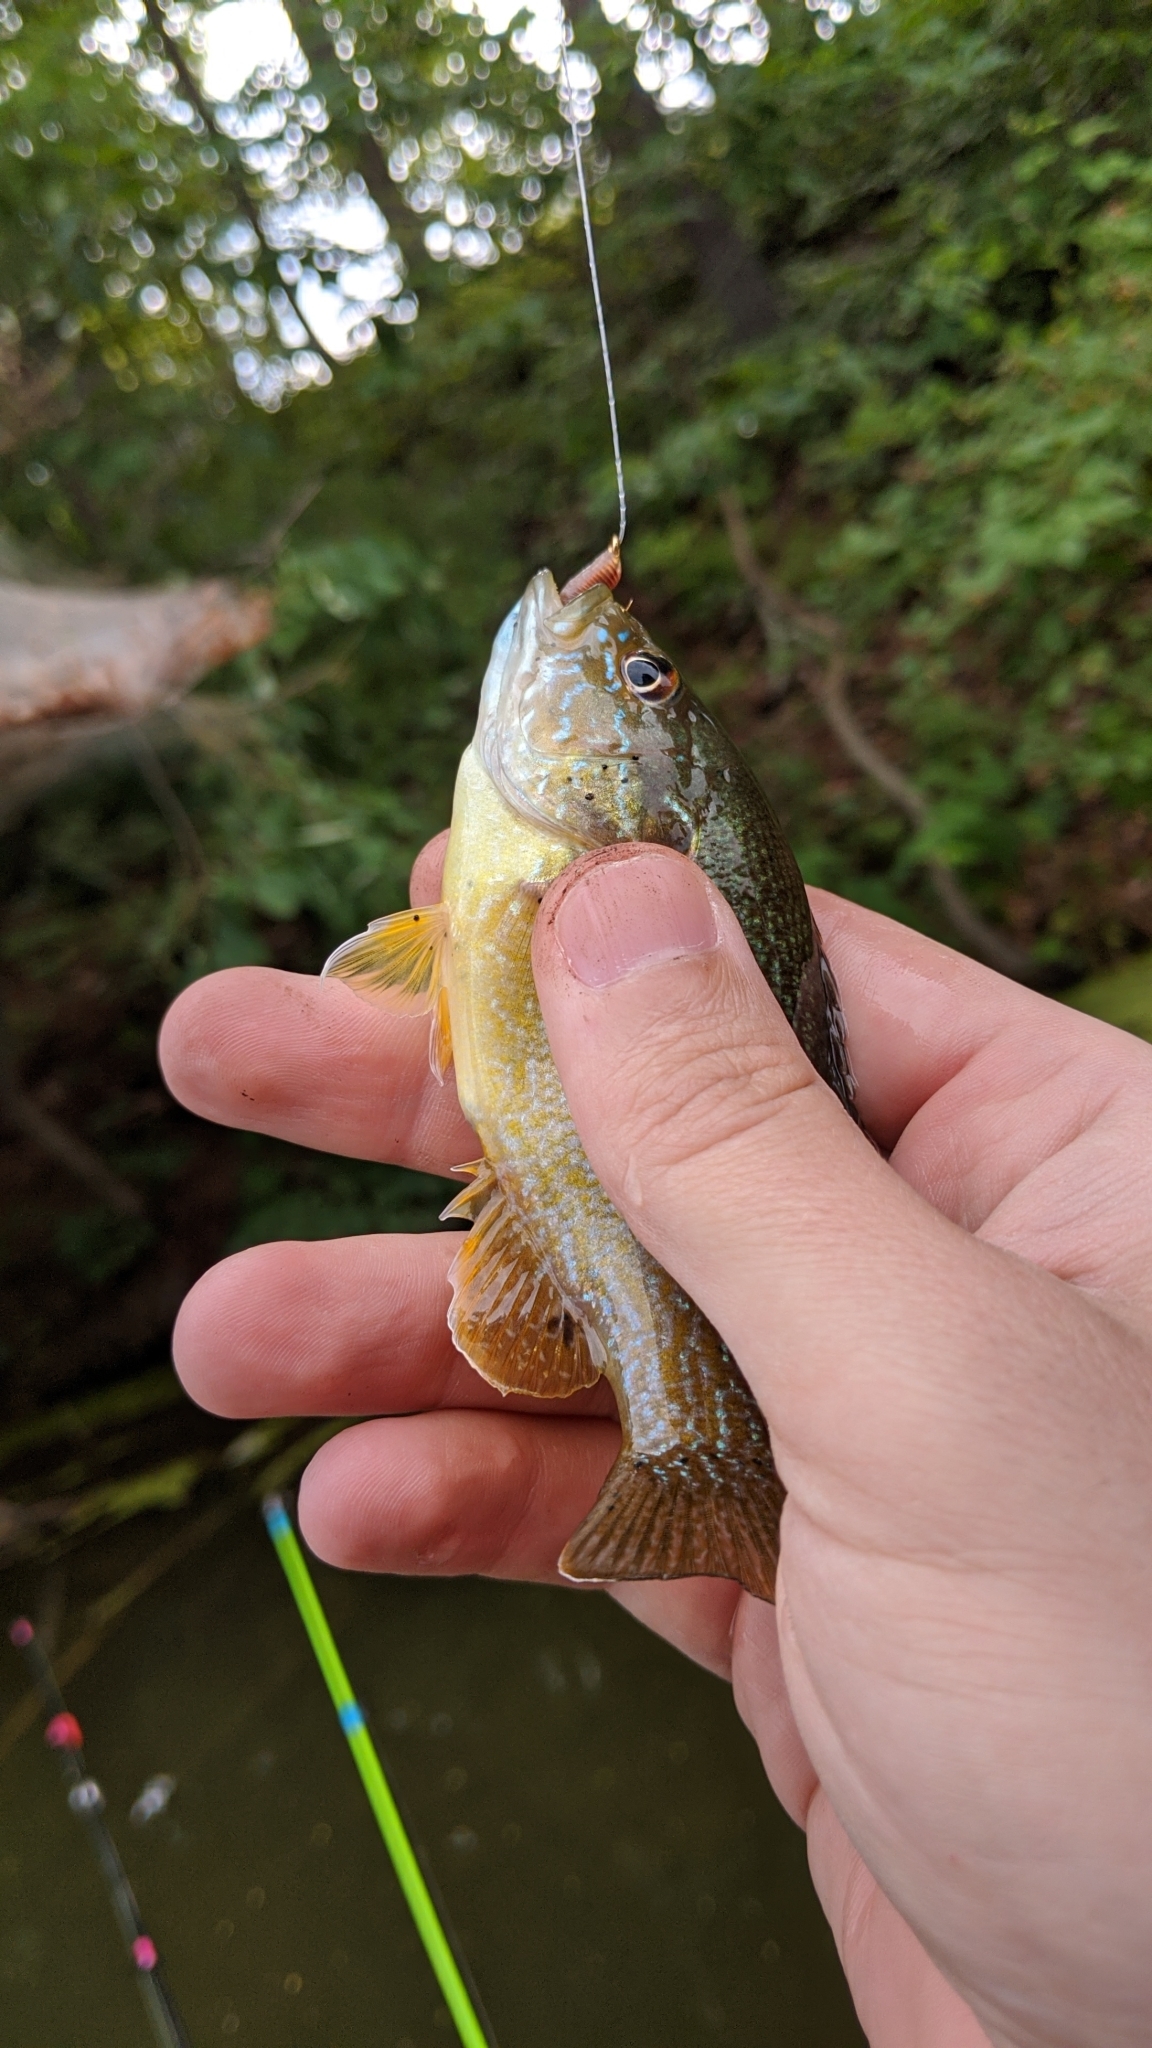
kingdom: Animalia
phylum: Chordata
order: Perciformes
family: Centrarchidae
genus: Lepomis
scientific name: Lepomis cyanellus
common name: Green sunfish
